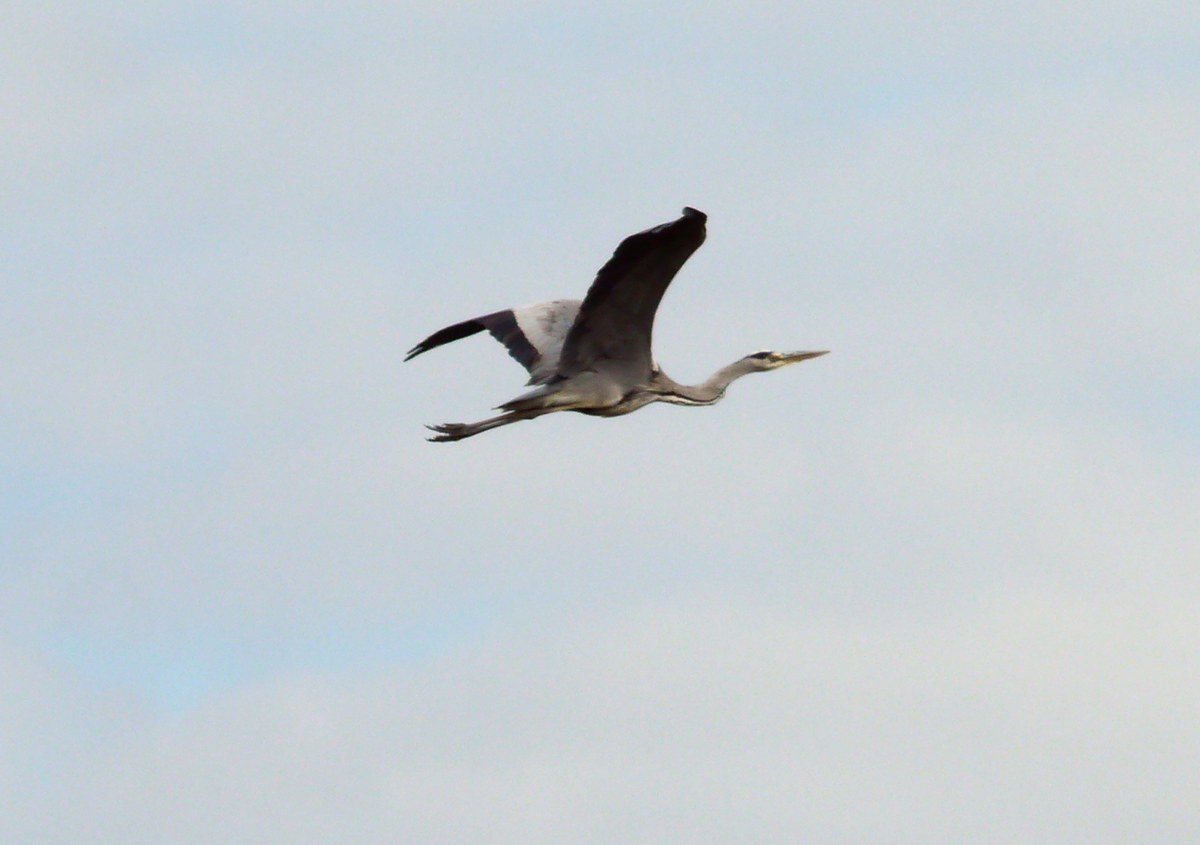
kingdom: Animalia
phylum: Chordata
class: Aves
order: Pelecaniformes
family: Ardeidae
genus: Ardea
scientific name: Ardea cinerea
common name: Grey heron
